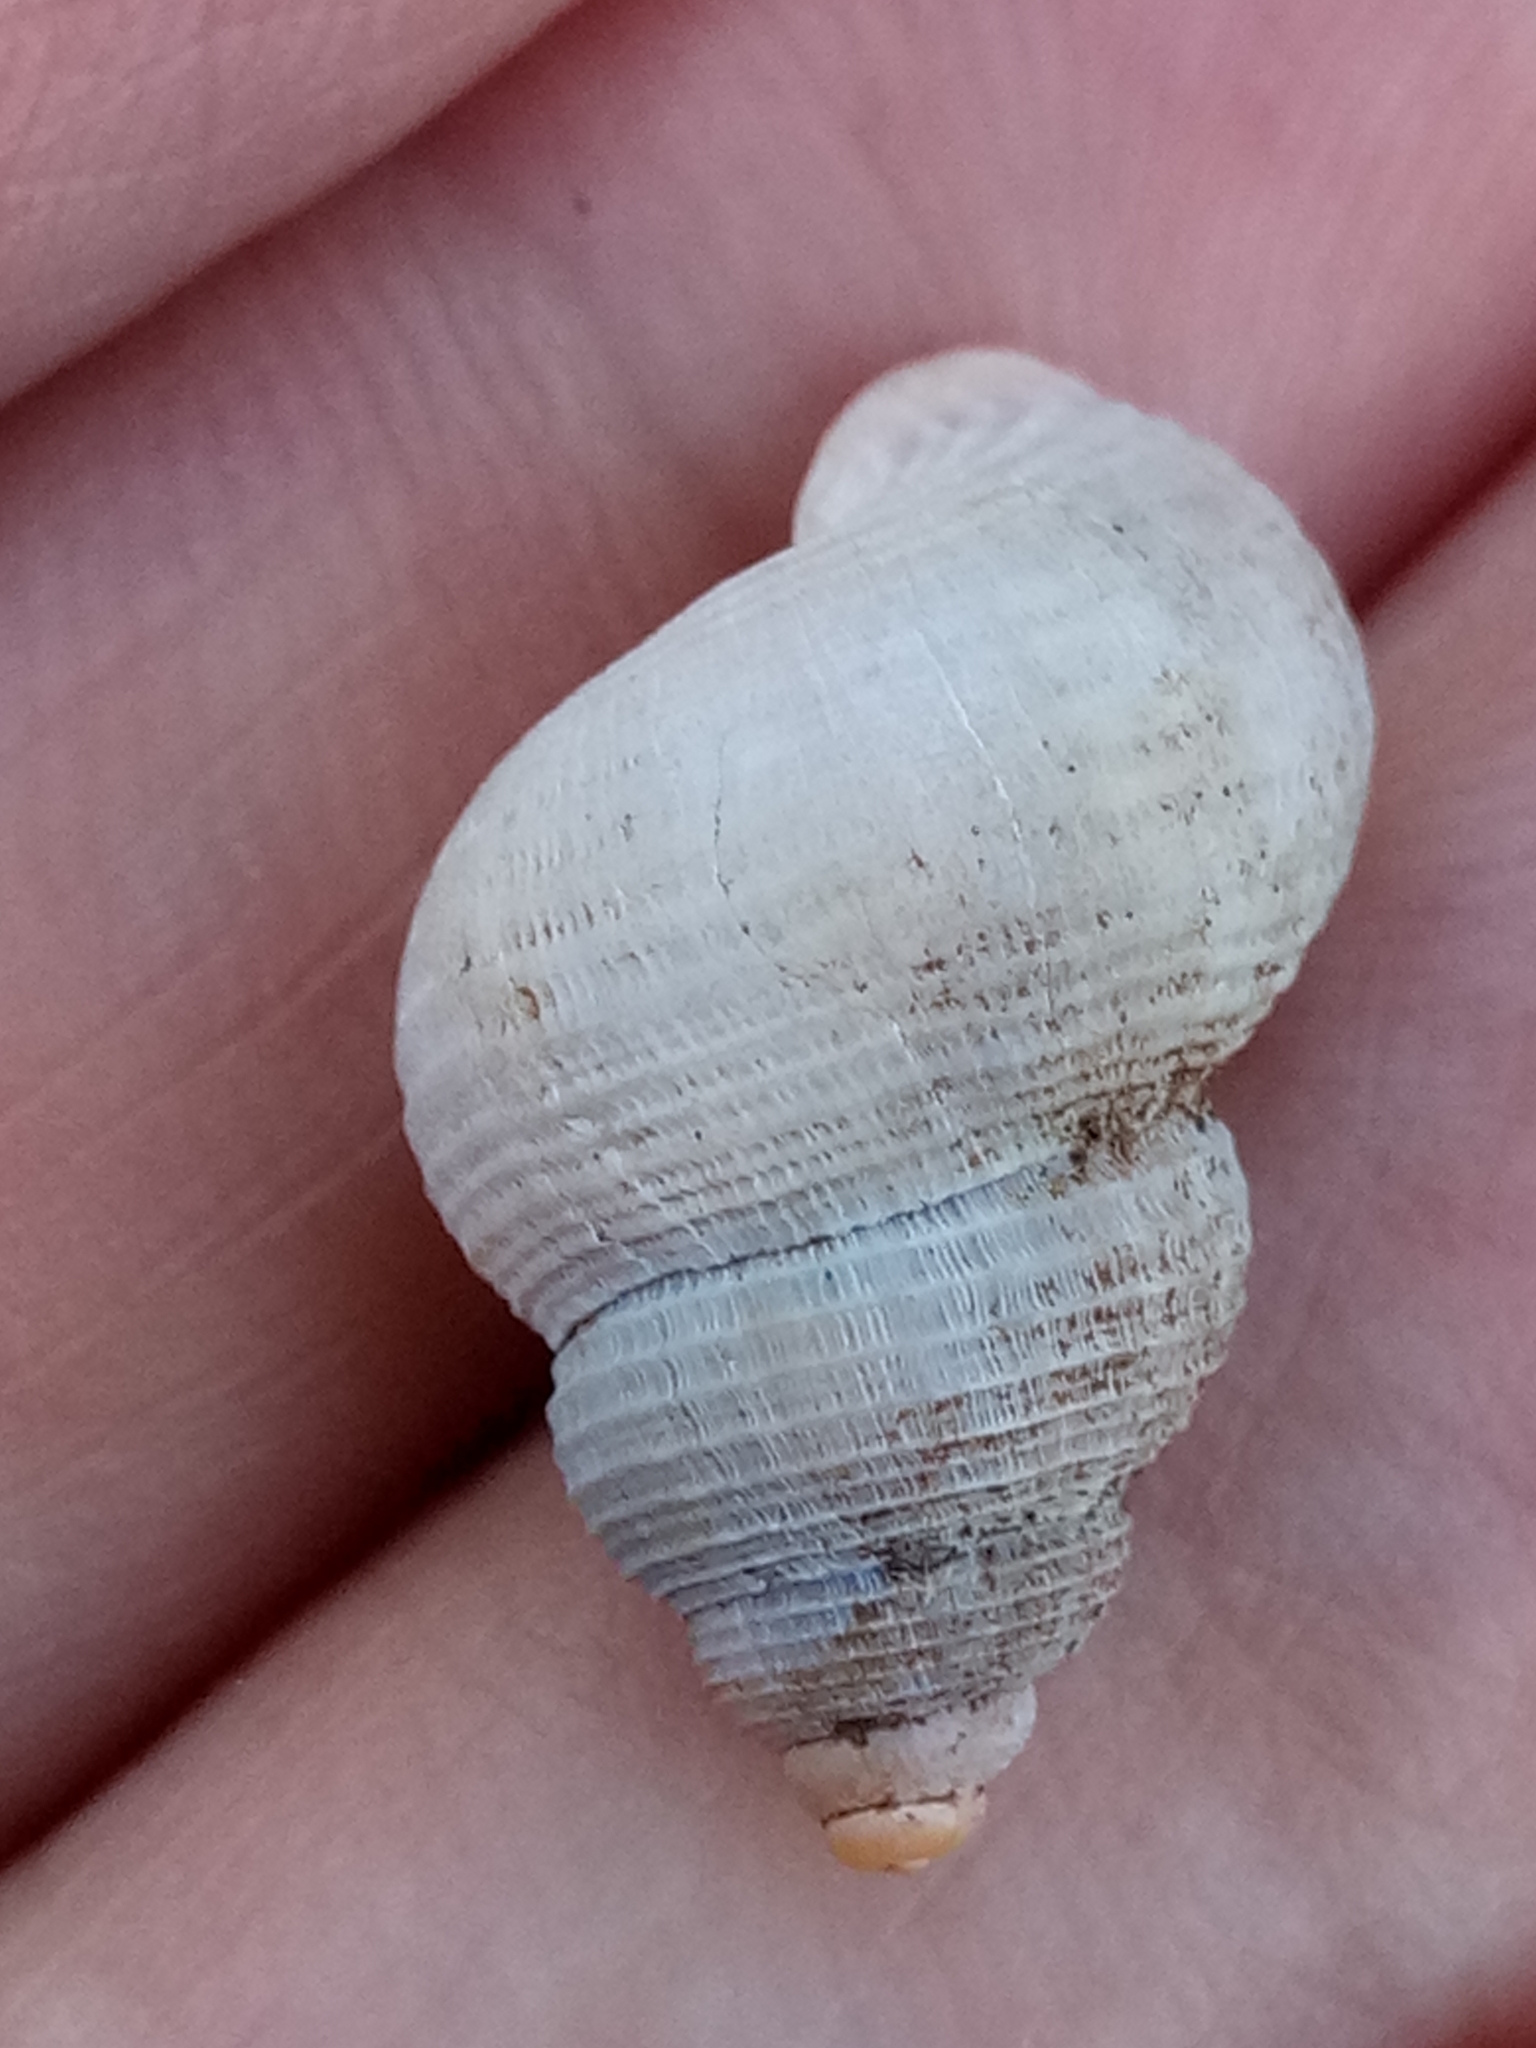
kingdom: Animalia
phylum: Mollusca
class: Gastropoda
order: Littorinimorpha
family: Pomatiidae
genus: Tudorella
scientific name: Tudorella sulcata
